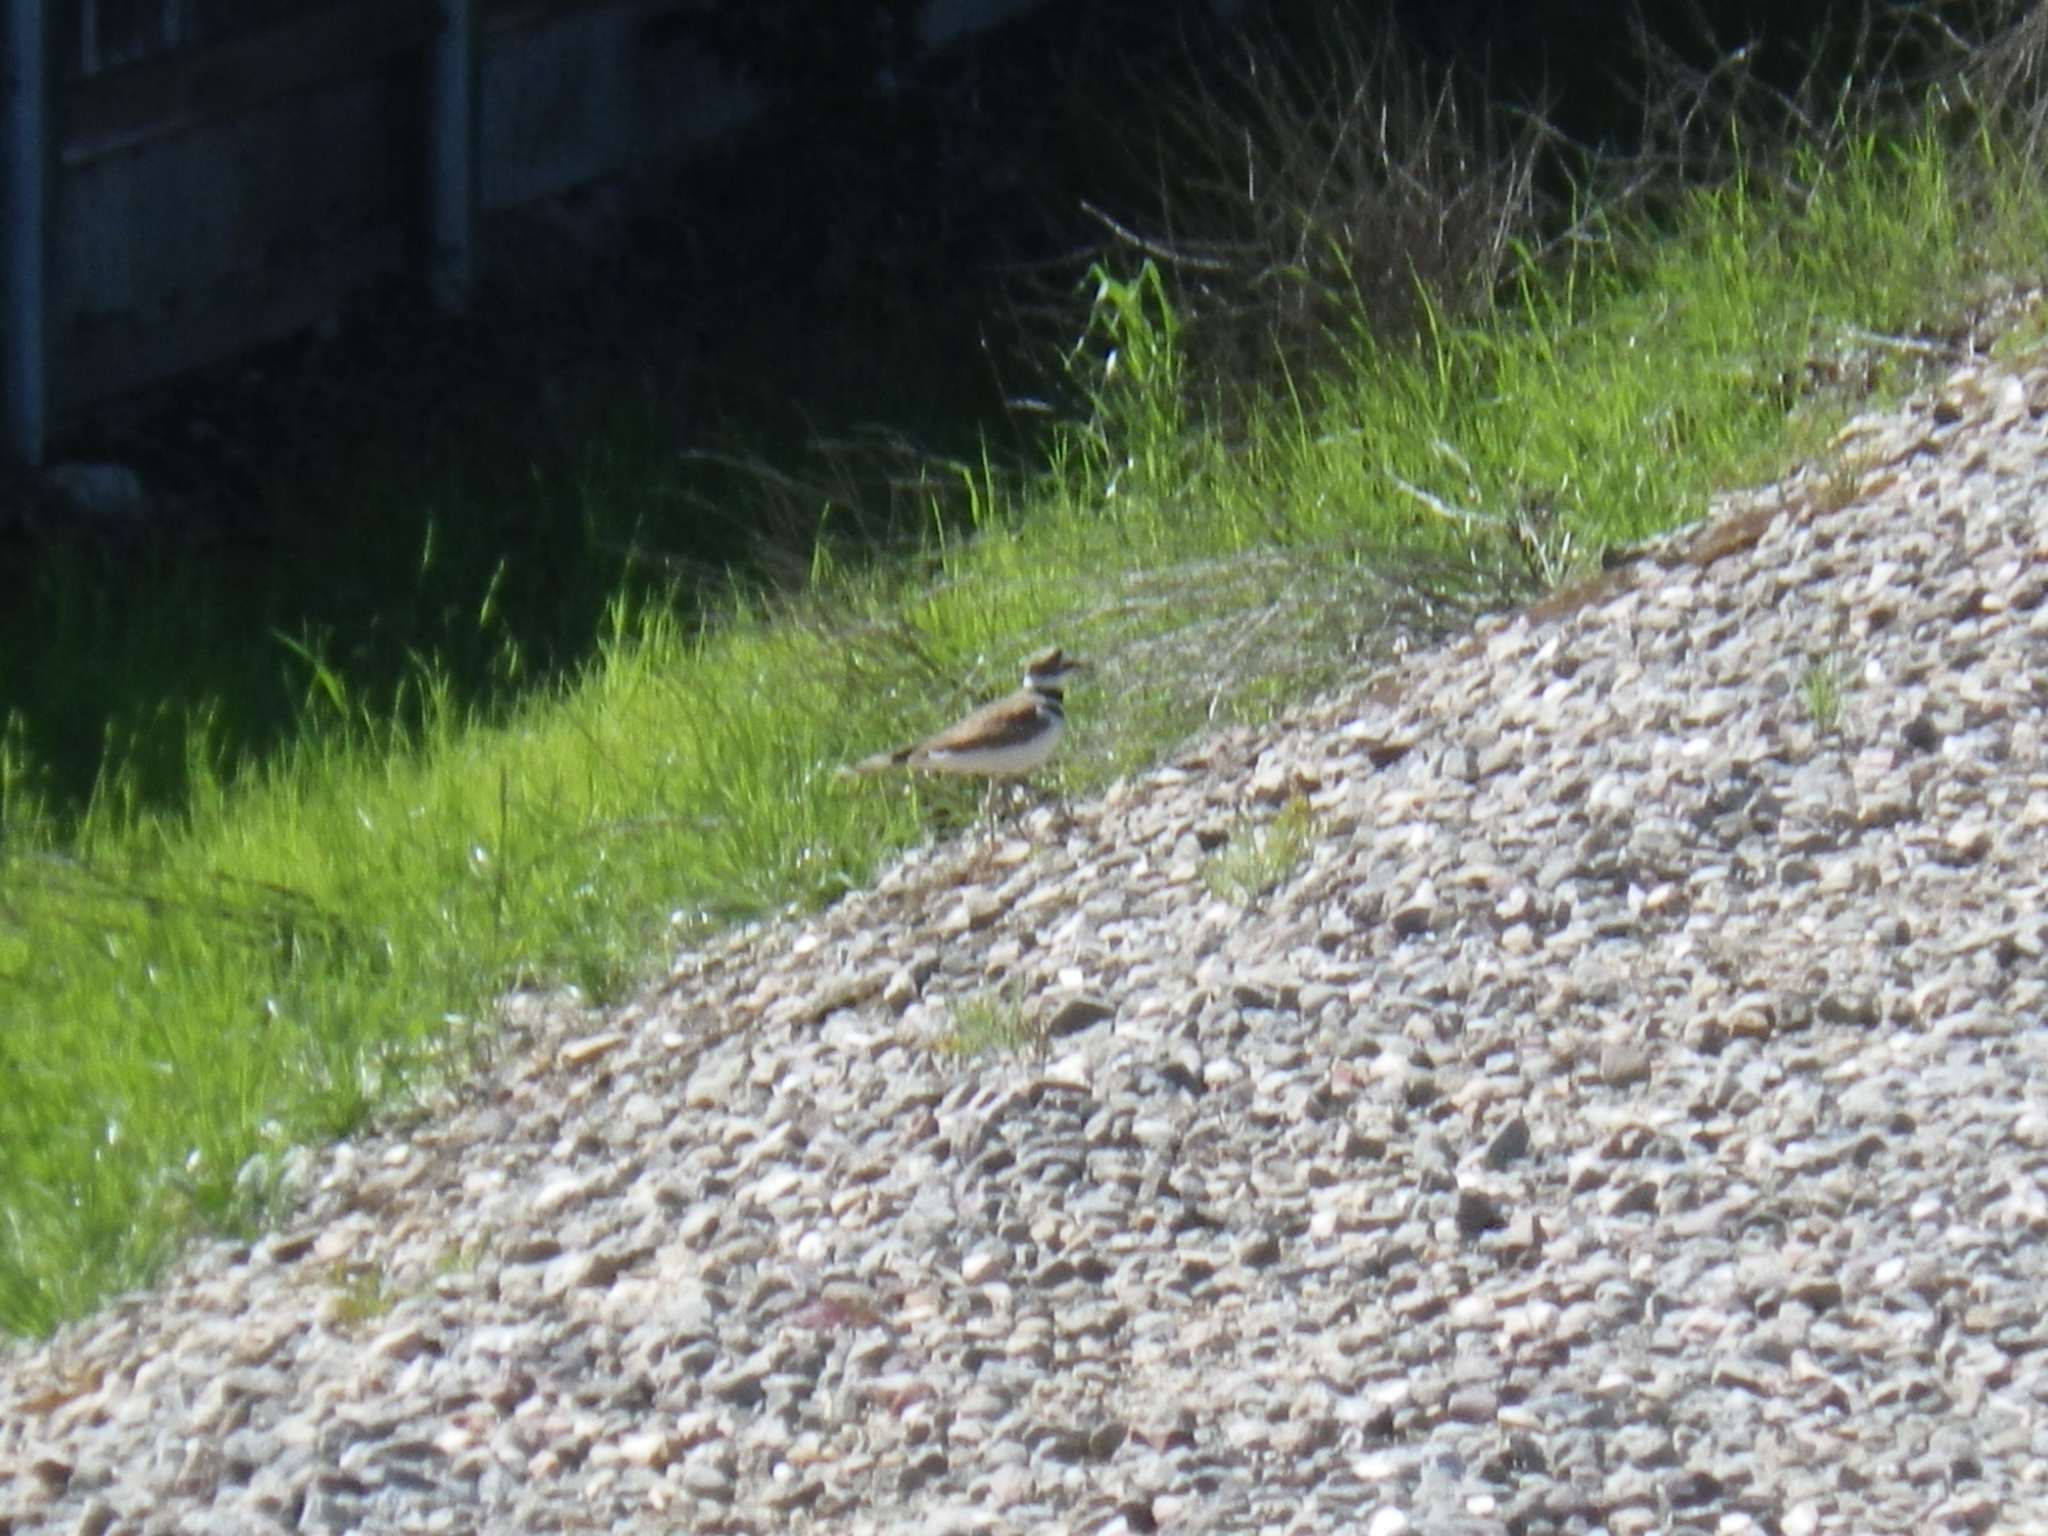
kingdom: Animalia
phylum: Chordata
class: Aves
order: Charadriiformes
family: Charadriidae
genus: Charadrius
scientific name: Charadrius vociferus
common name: Killdeer
